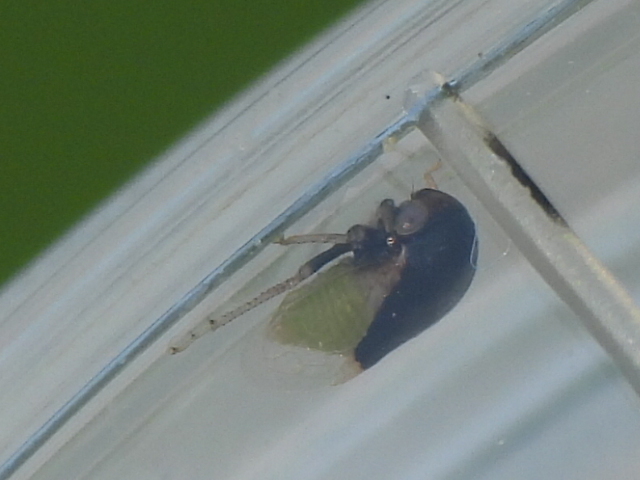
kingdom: Animalia
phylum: Arthropoda
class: Insecta
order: Hemiptera
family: Membracidae
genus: Micrutalis
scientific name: Micrutalis calva
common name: Honeylocust treehopper
